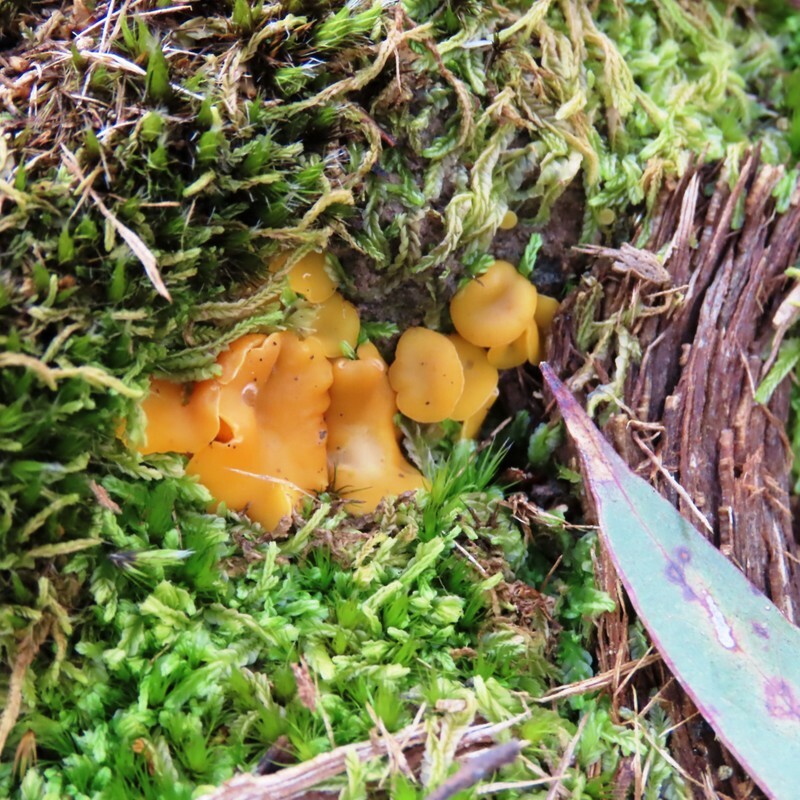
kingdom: Fungi
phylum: Ascomycota
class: Leotiomycetes
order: Helotiales
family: Helotiaceae
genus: Phaeohelotium
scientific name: Phaeohelotium baileyanum
